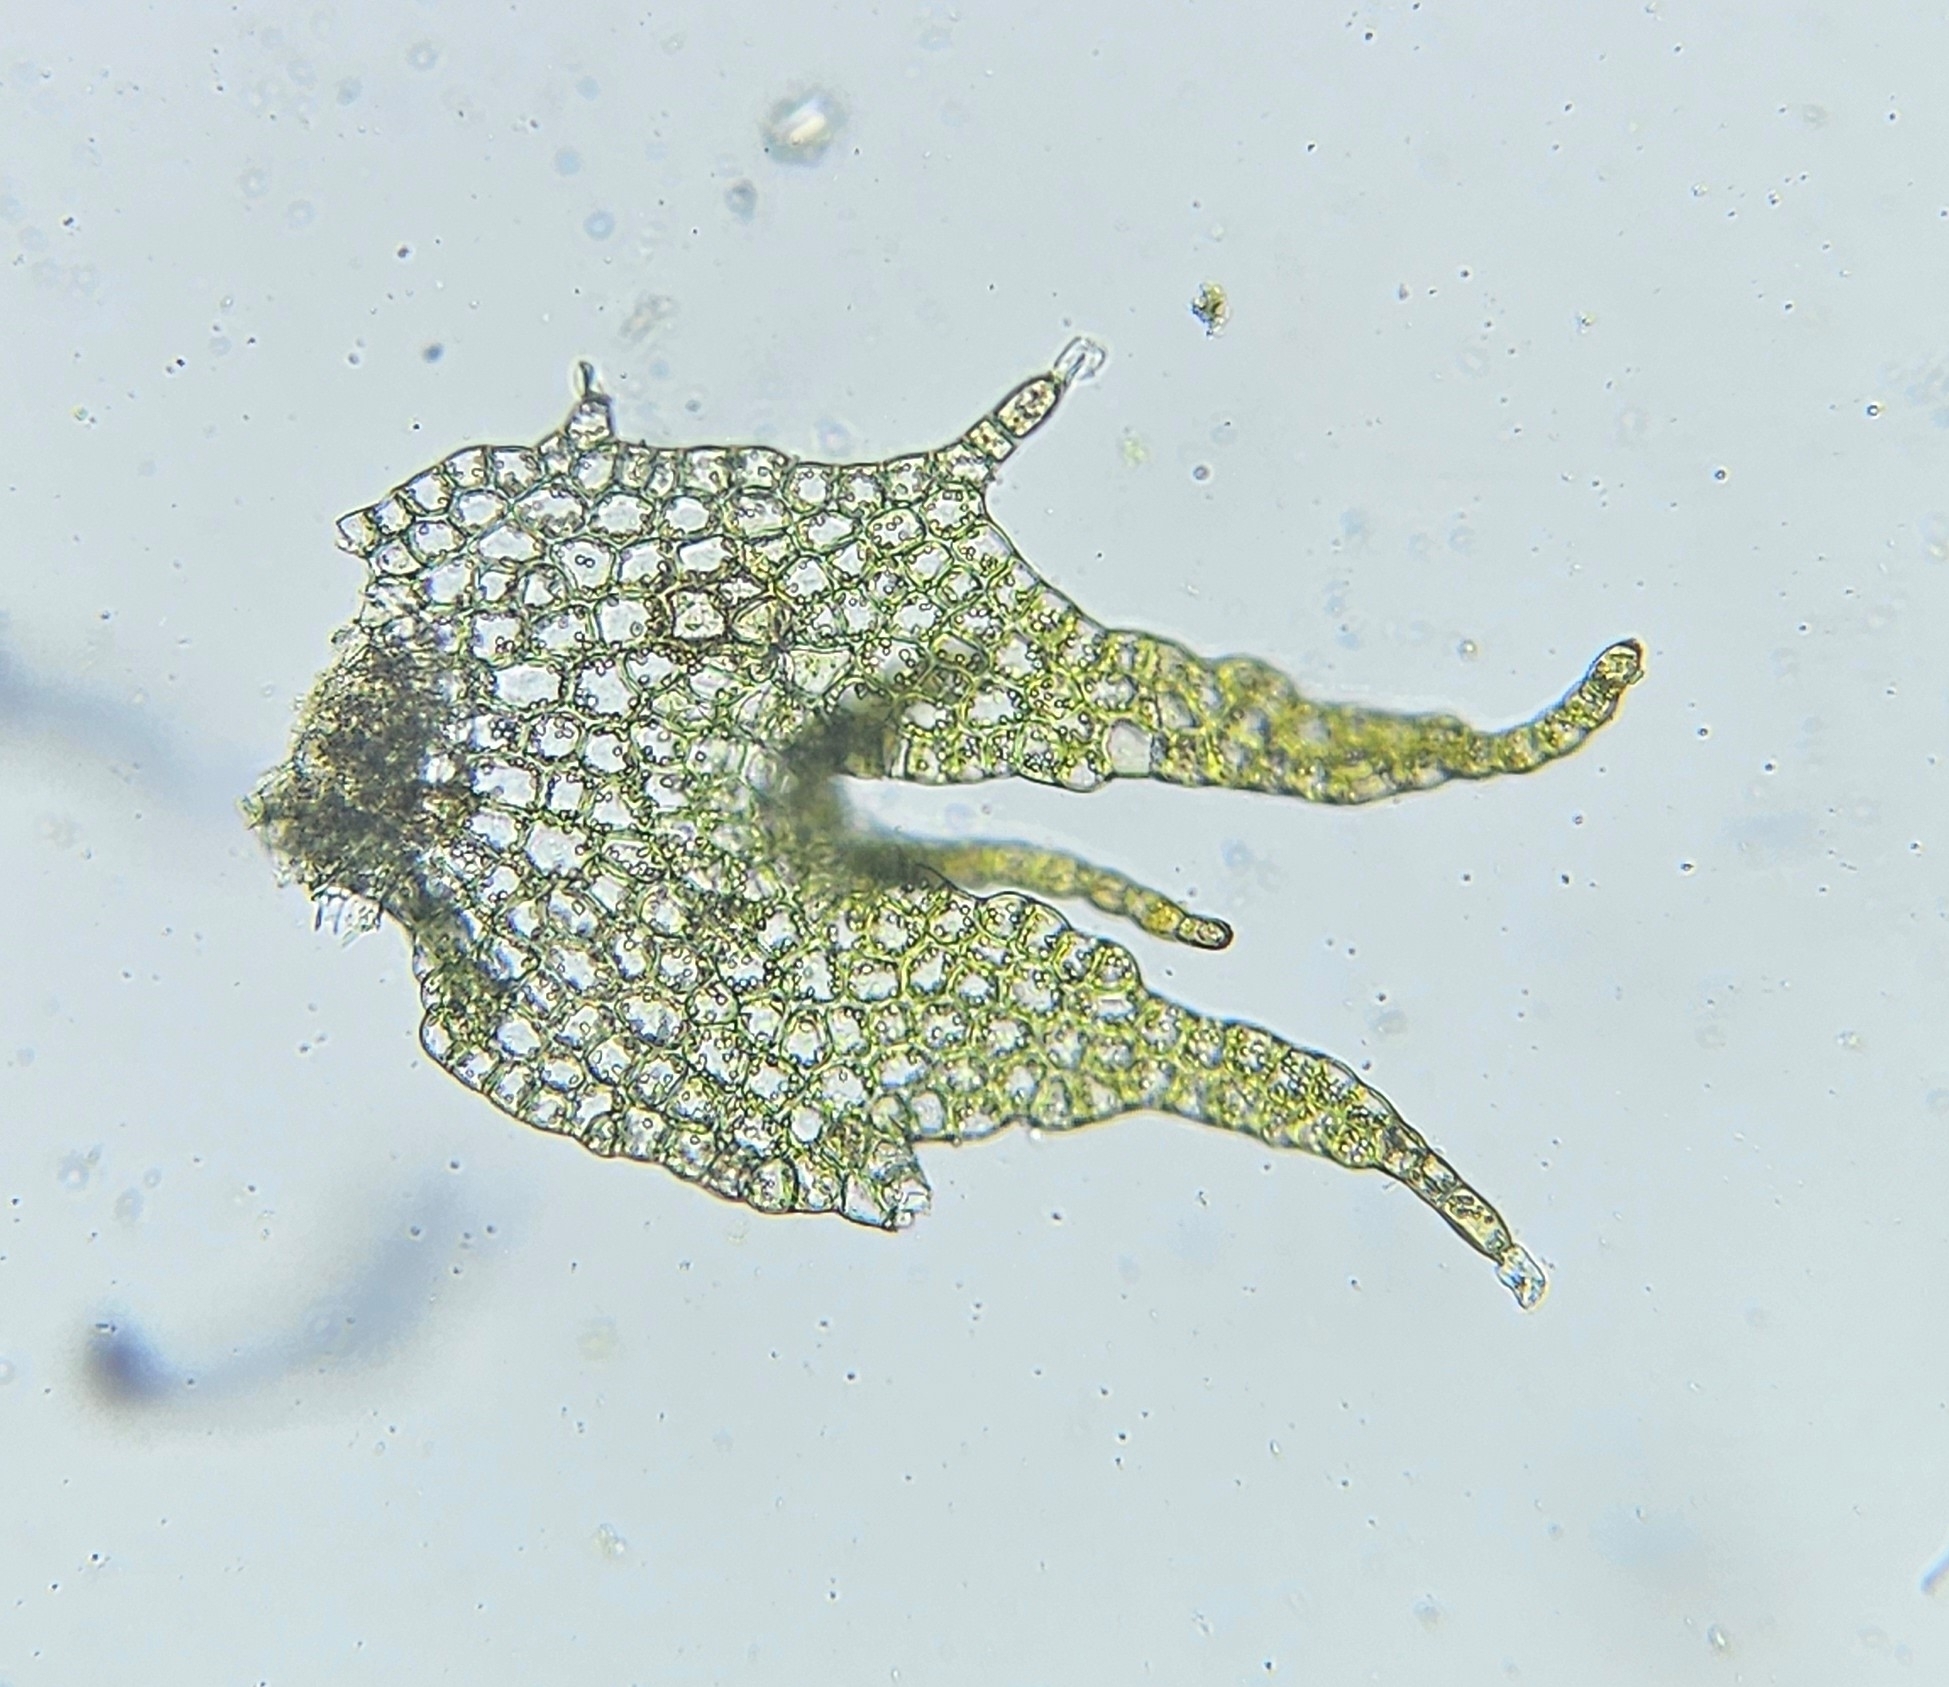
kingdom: Plantae
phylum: Marchantiophyta
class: Jungermanniopsida
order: Jungermanniales
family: Anastrophyllaceae
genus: Barbilophozia
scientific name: Barbilophozia hatcheri
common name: Hatcher s pawwort
